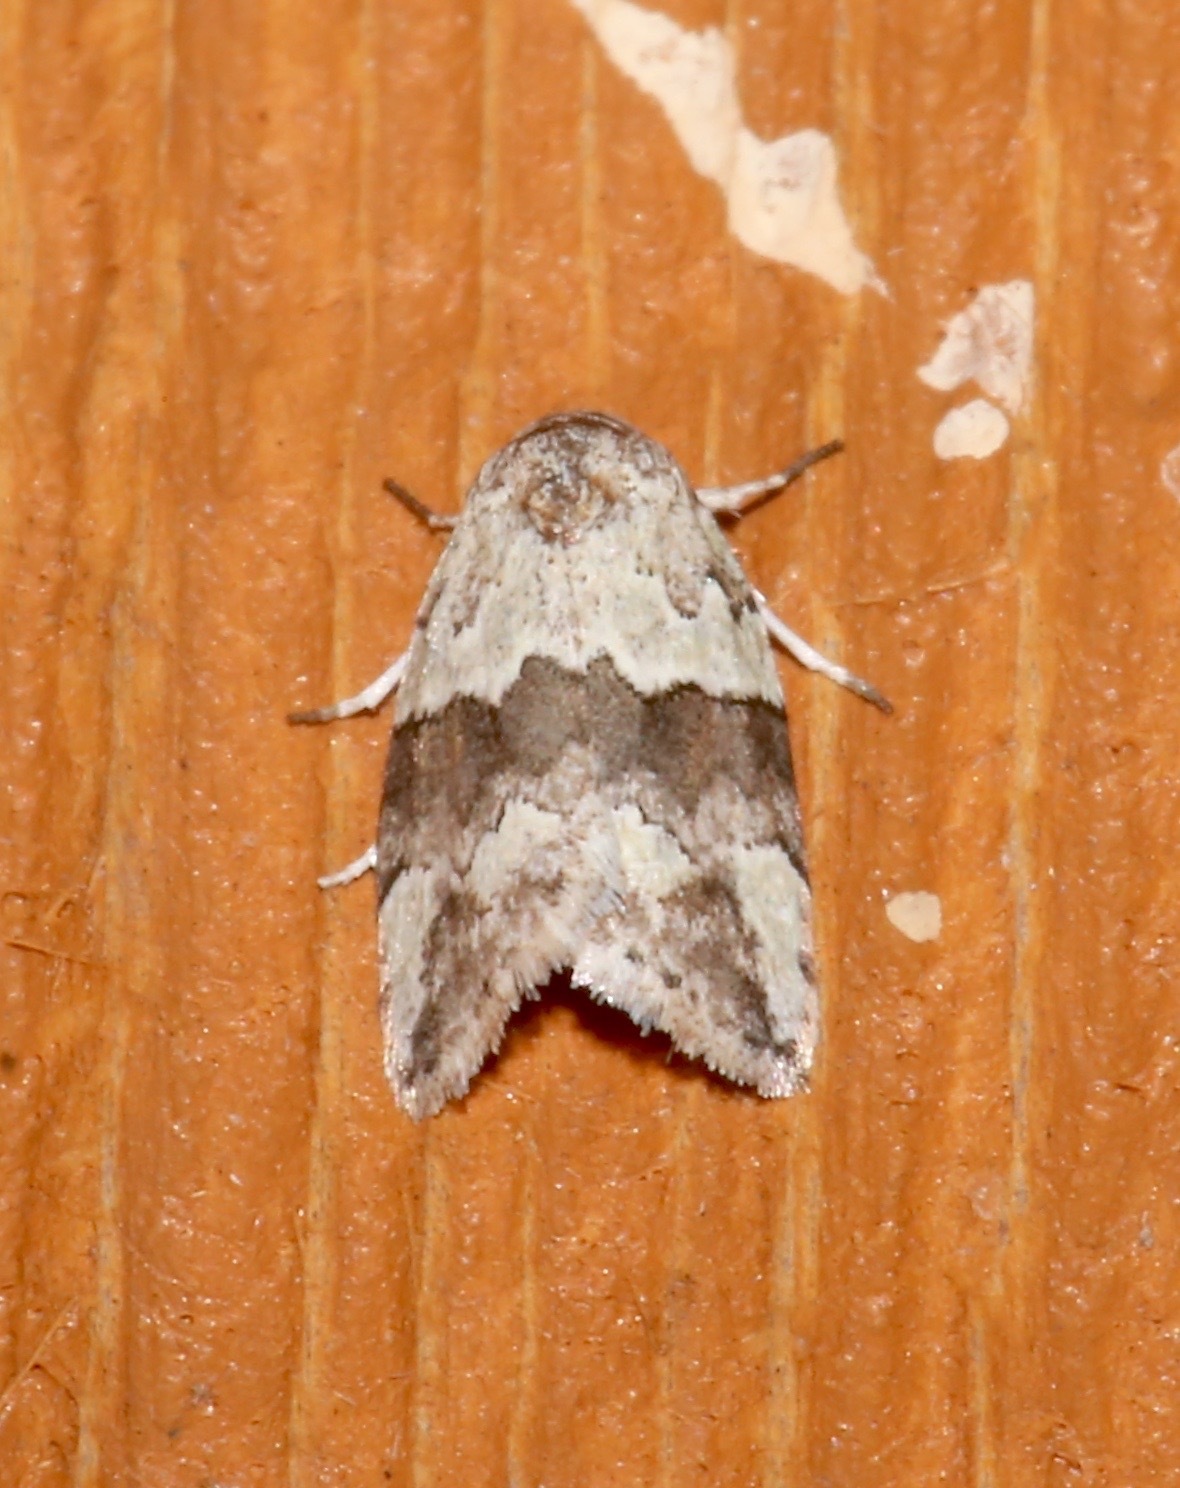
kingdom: Animalia
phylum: Arthropoda
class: Insecta
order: Lepidoptera
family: Nolidae
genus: Afrida
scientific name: Afrida ydatodes
